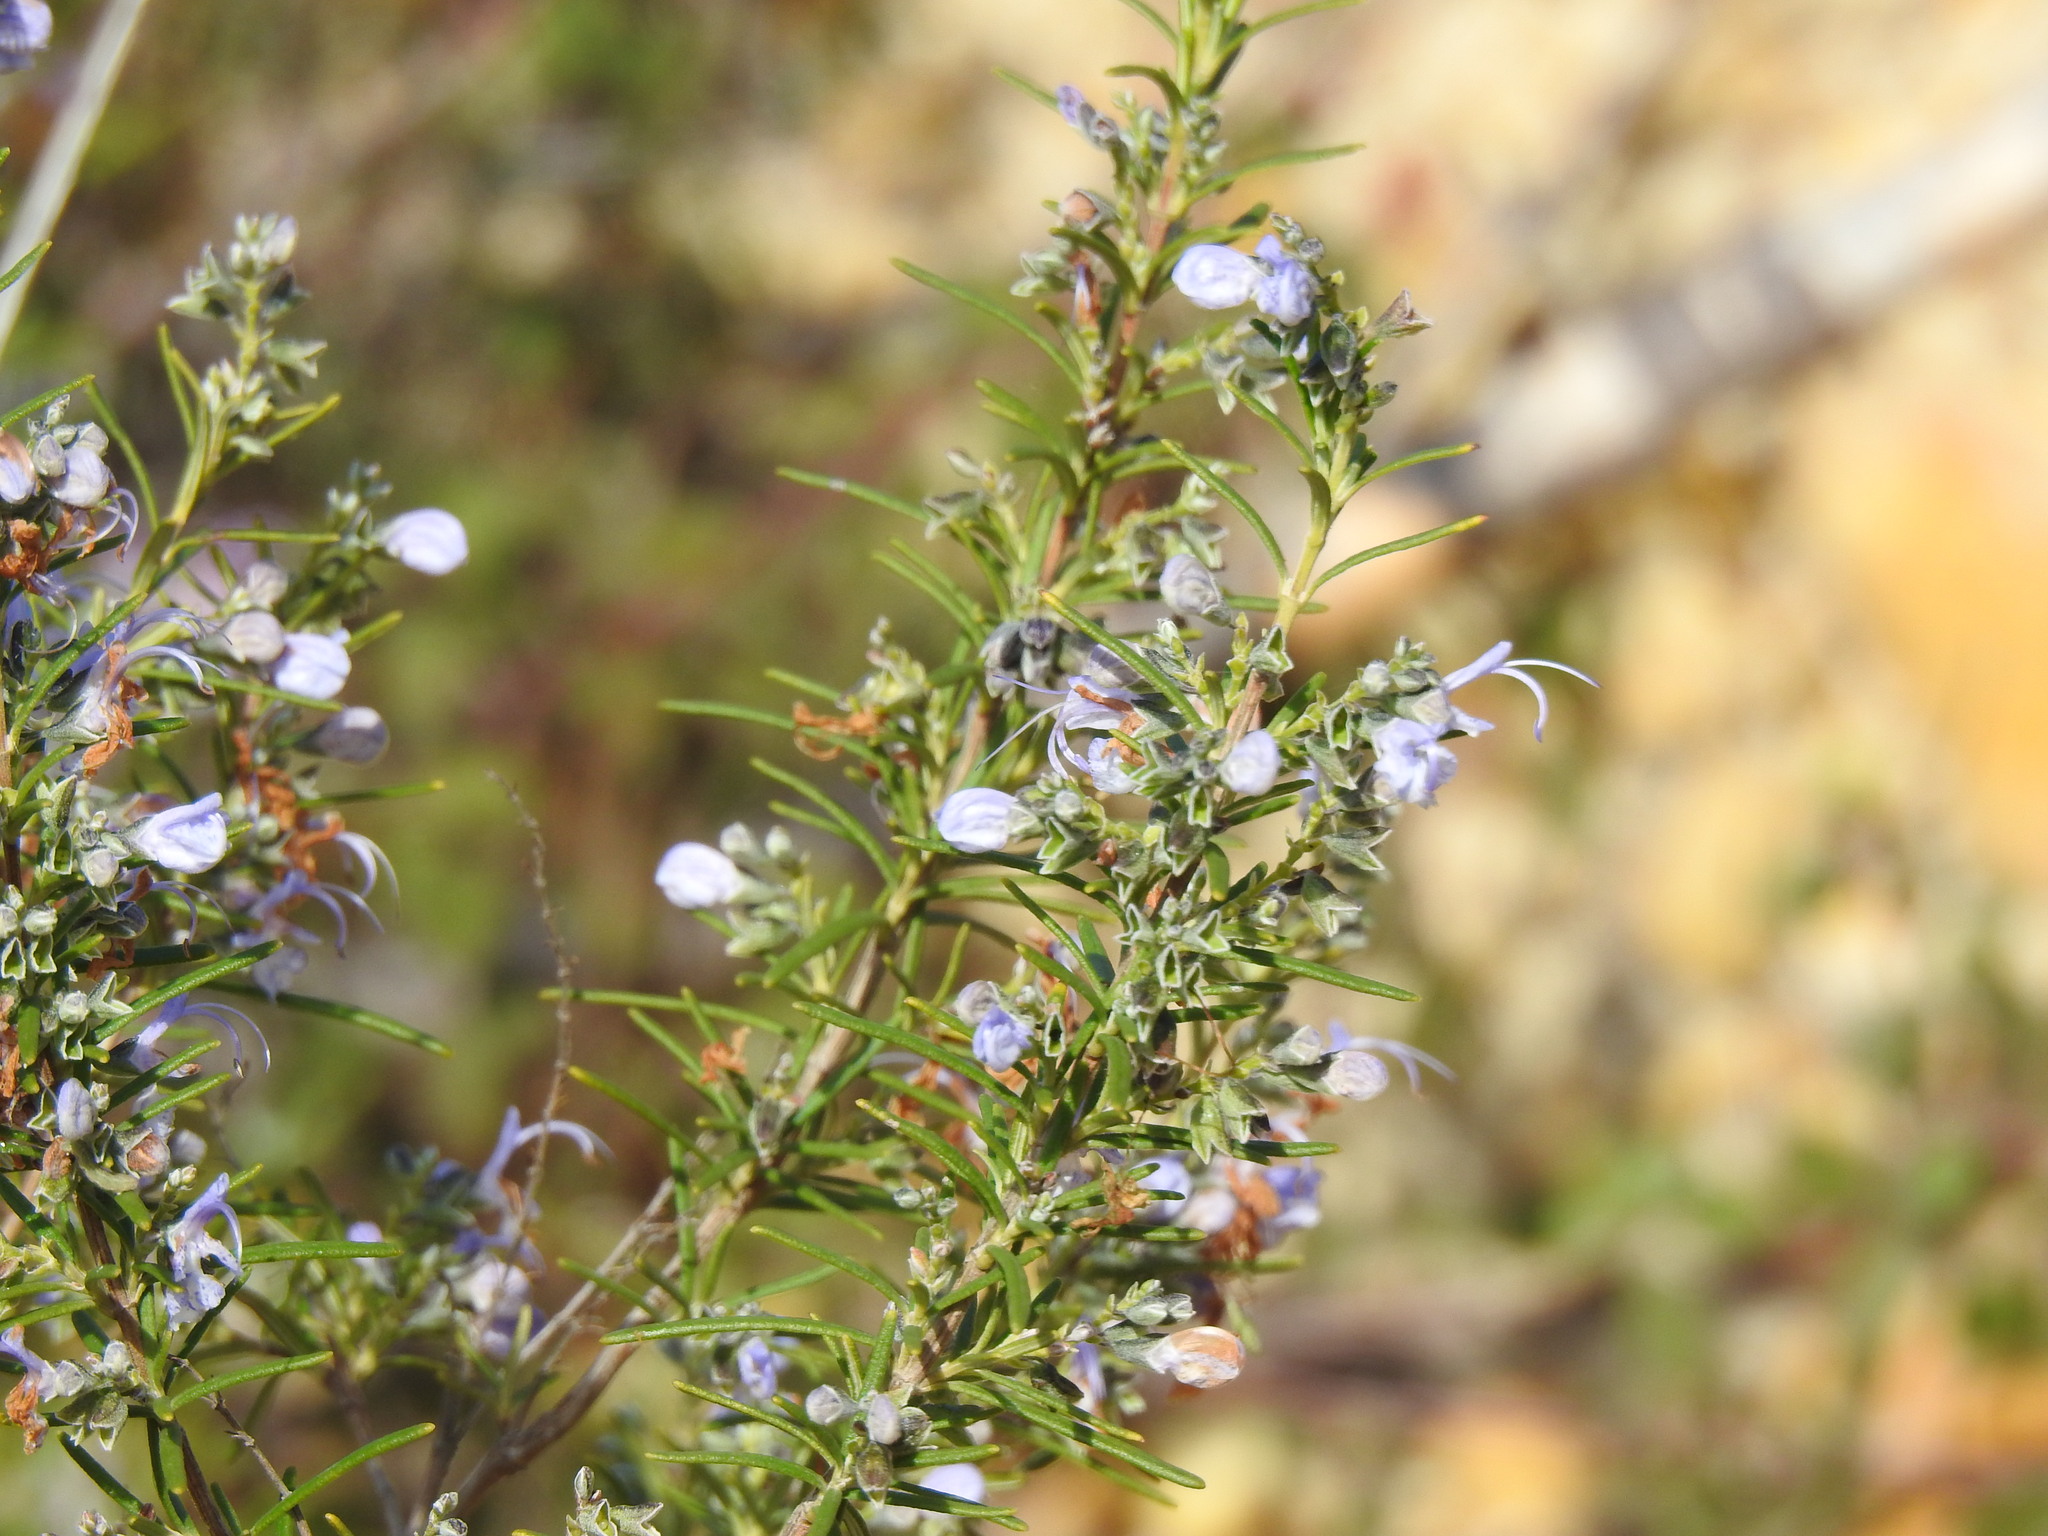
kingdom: Plantae
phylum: Tracheophyta
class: Magnoliopsida
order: Lamiales
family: Lamiaceae
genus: Salvia
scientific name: Salvia rosmarinus
